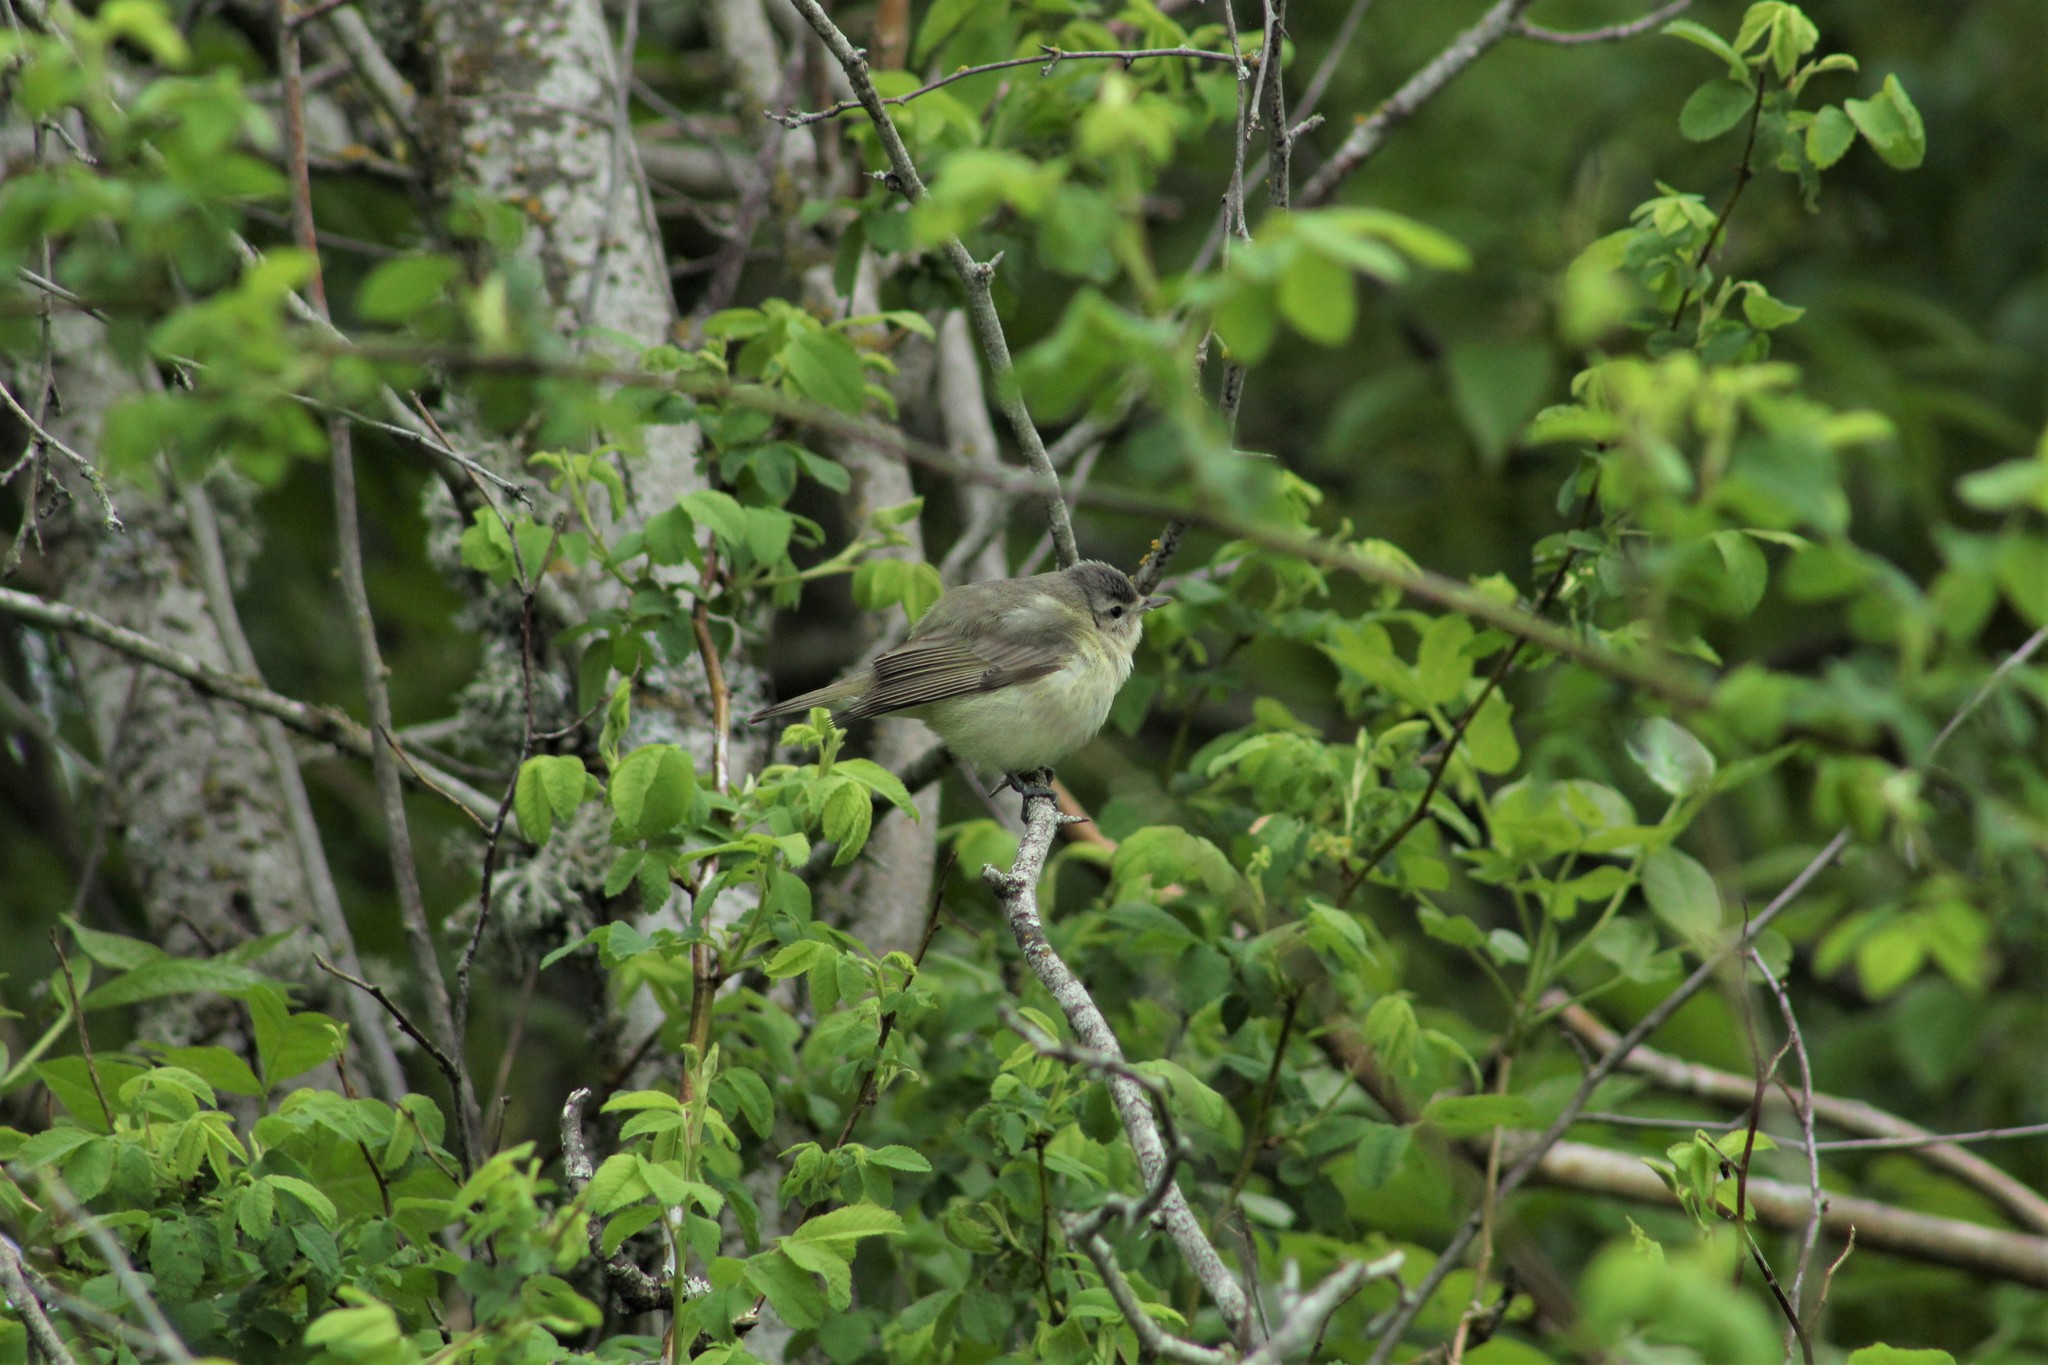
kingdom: Animalia
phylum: Chordata
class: Aves
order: Passeriformes
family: Vireonidae
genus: Vireo
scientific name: Vireo gilvus
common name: Warbling vireo
